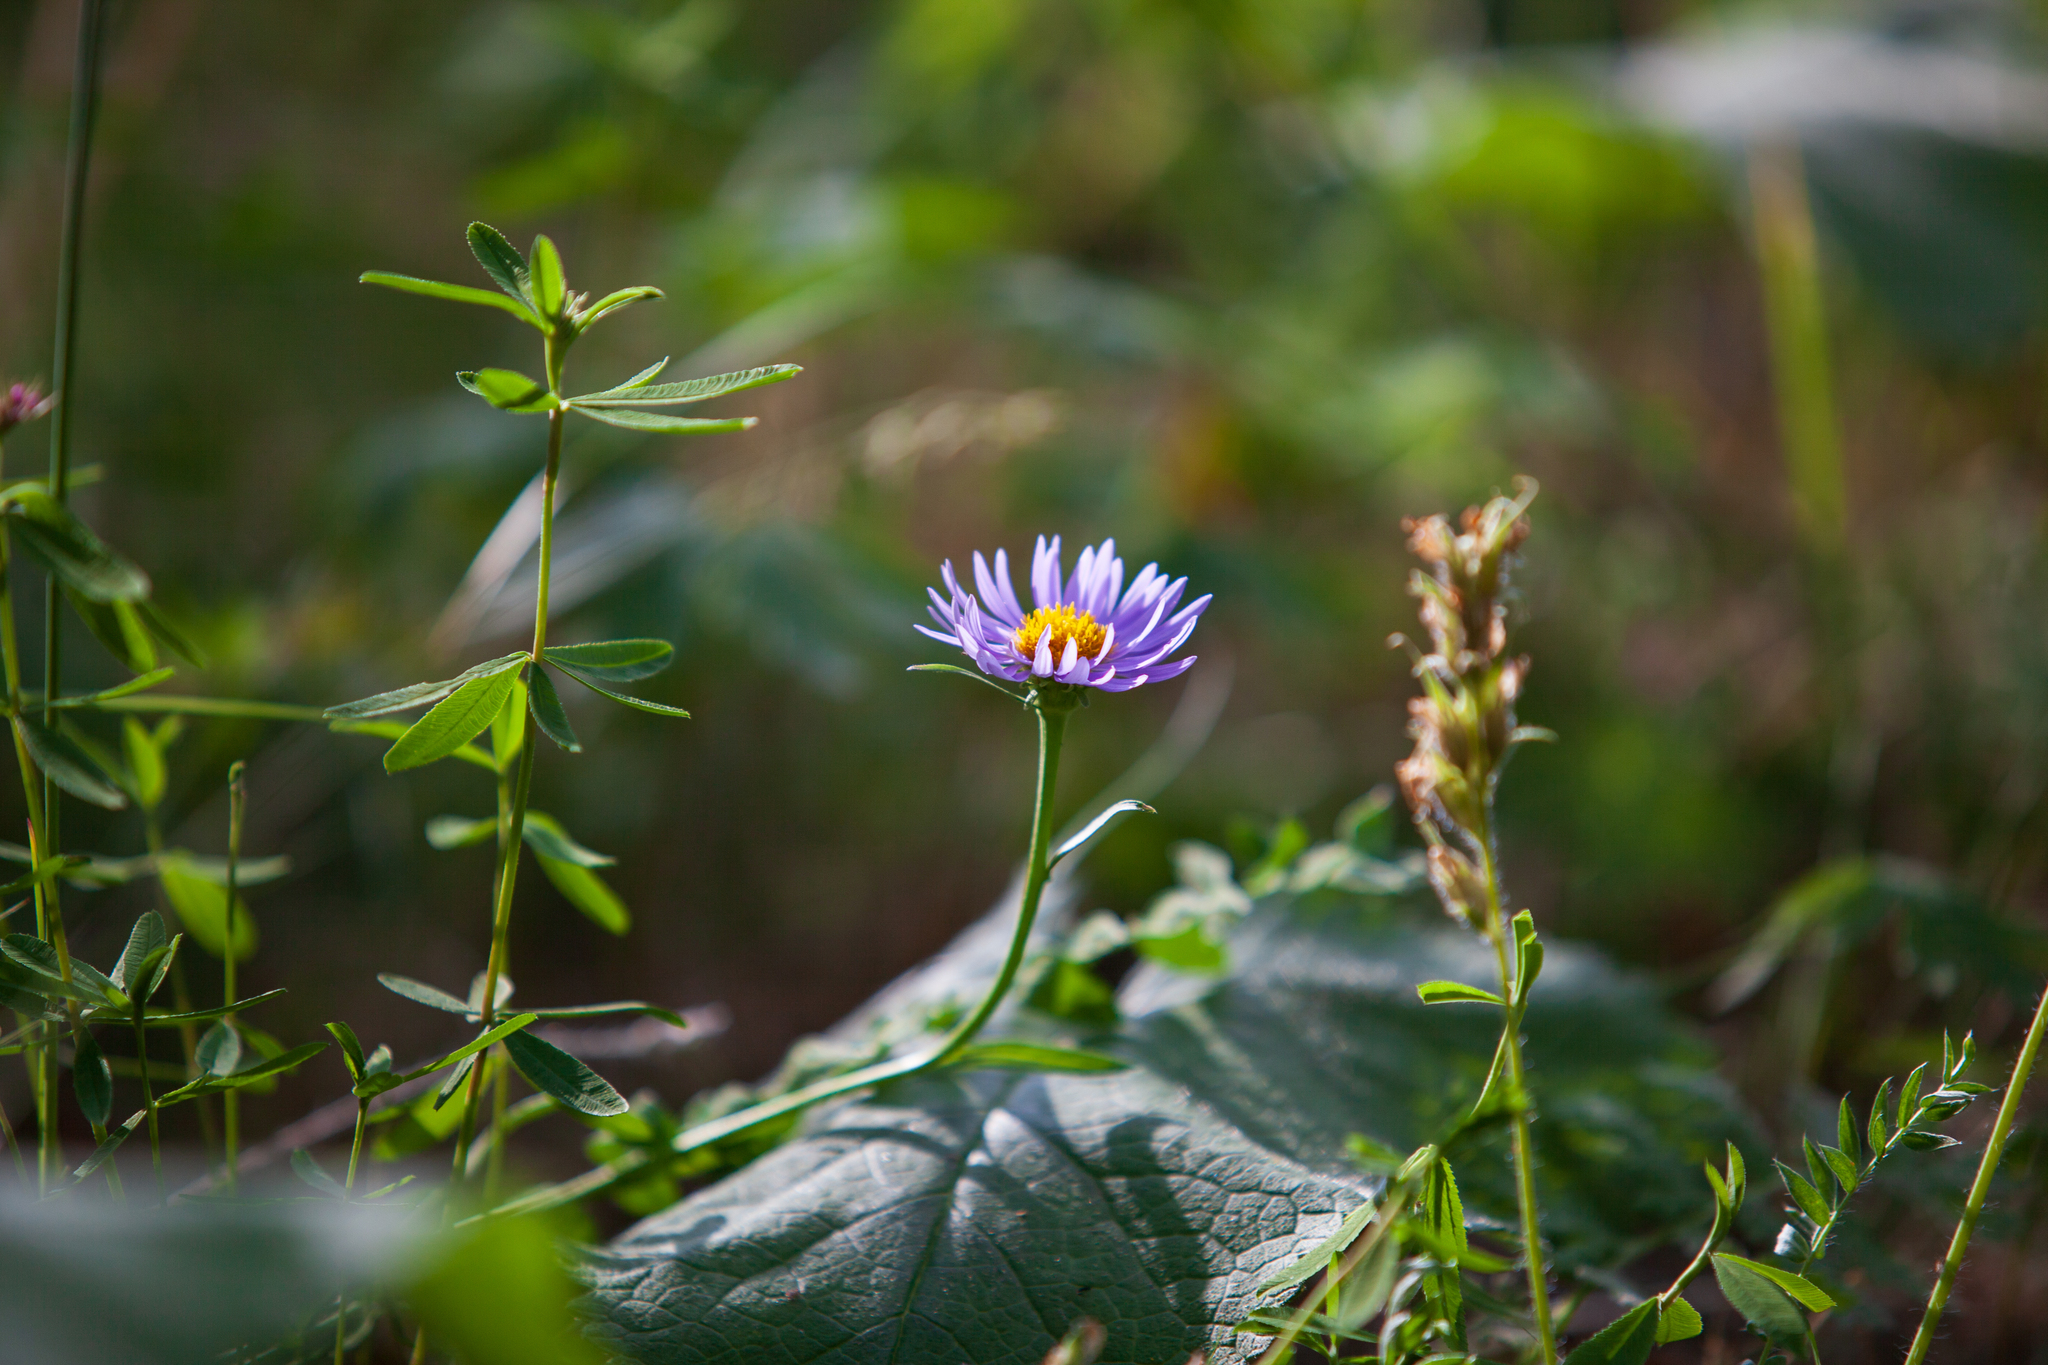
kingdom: Plantae
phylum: Tracheophyta
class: Magnoliopsida
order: Asterales
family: Asteraceae
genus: Aster
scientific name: Aster alpinus
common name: Alpine aster
